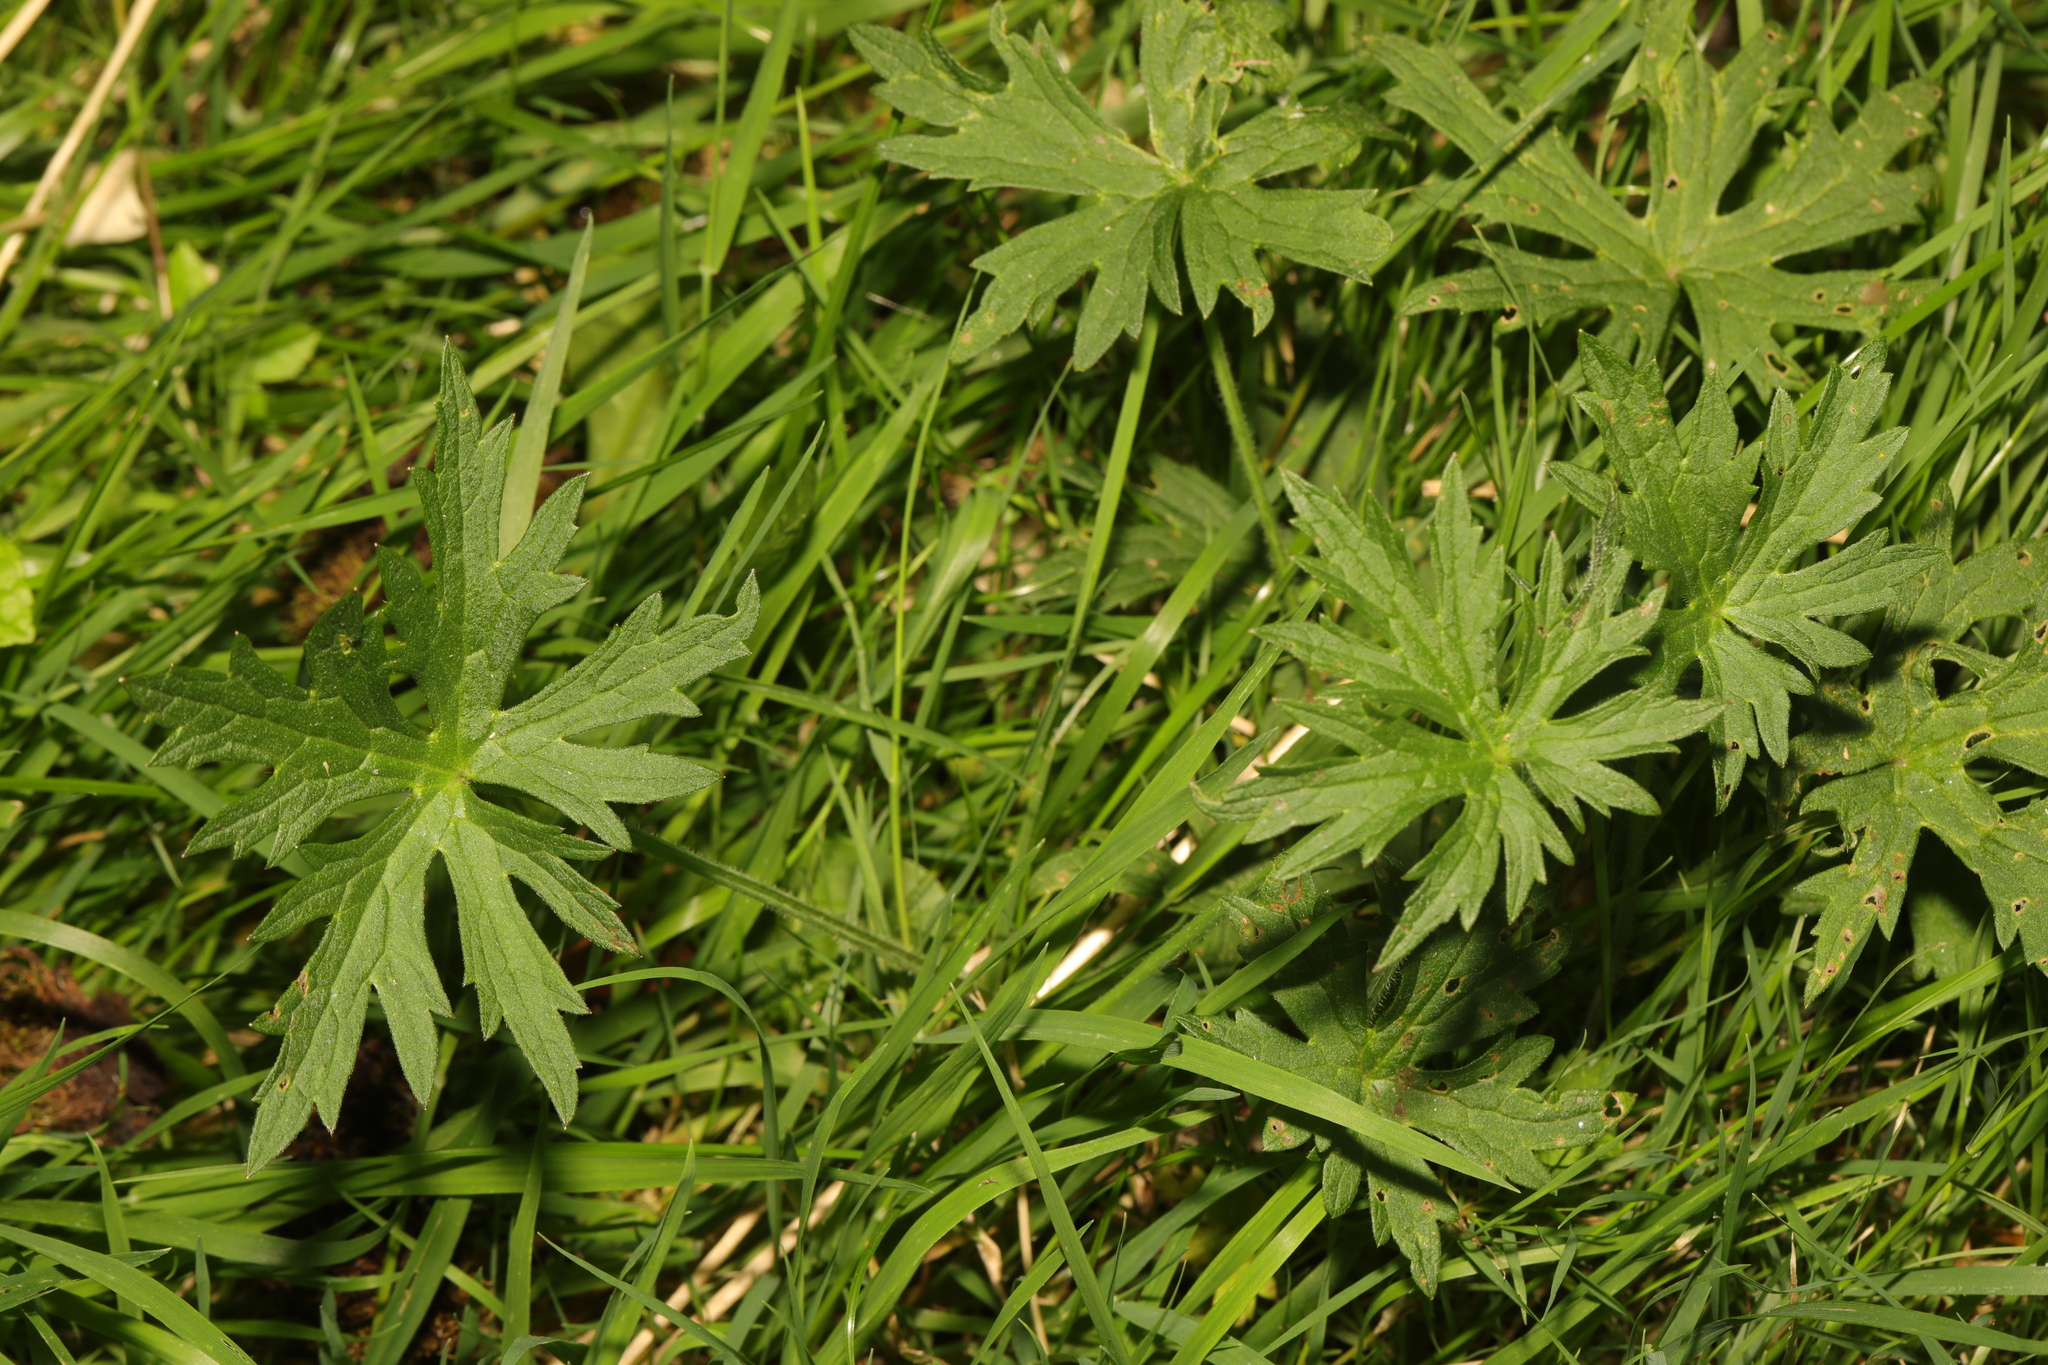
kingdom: Plantae
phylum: Tracheophyta
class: Magnoliopsida
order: Ranunculales
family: Ranunculaceae
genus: Ranunculus
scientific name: Ranunculus acris
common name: Meadow buttercup
